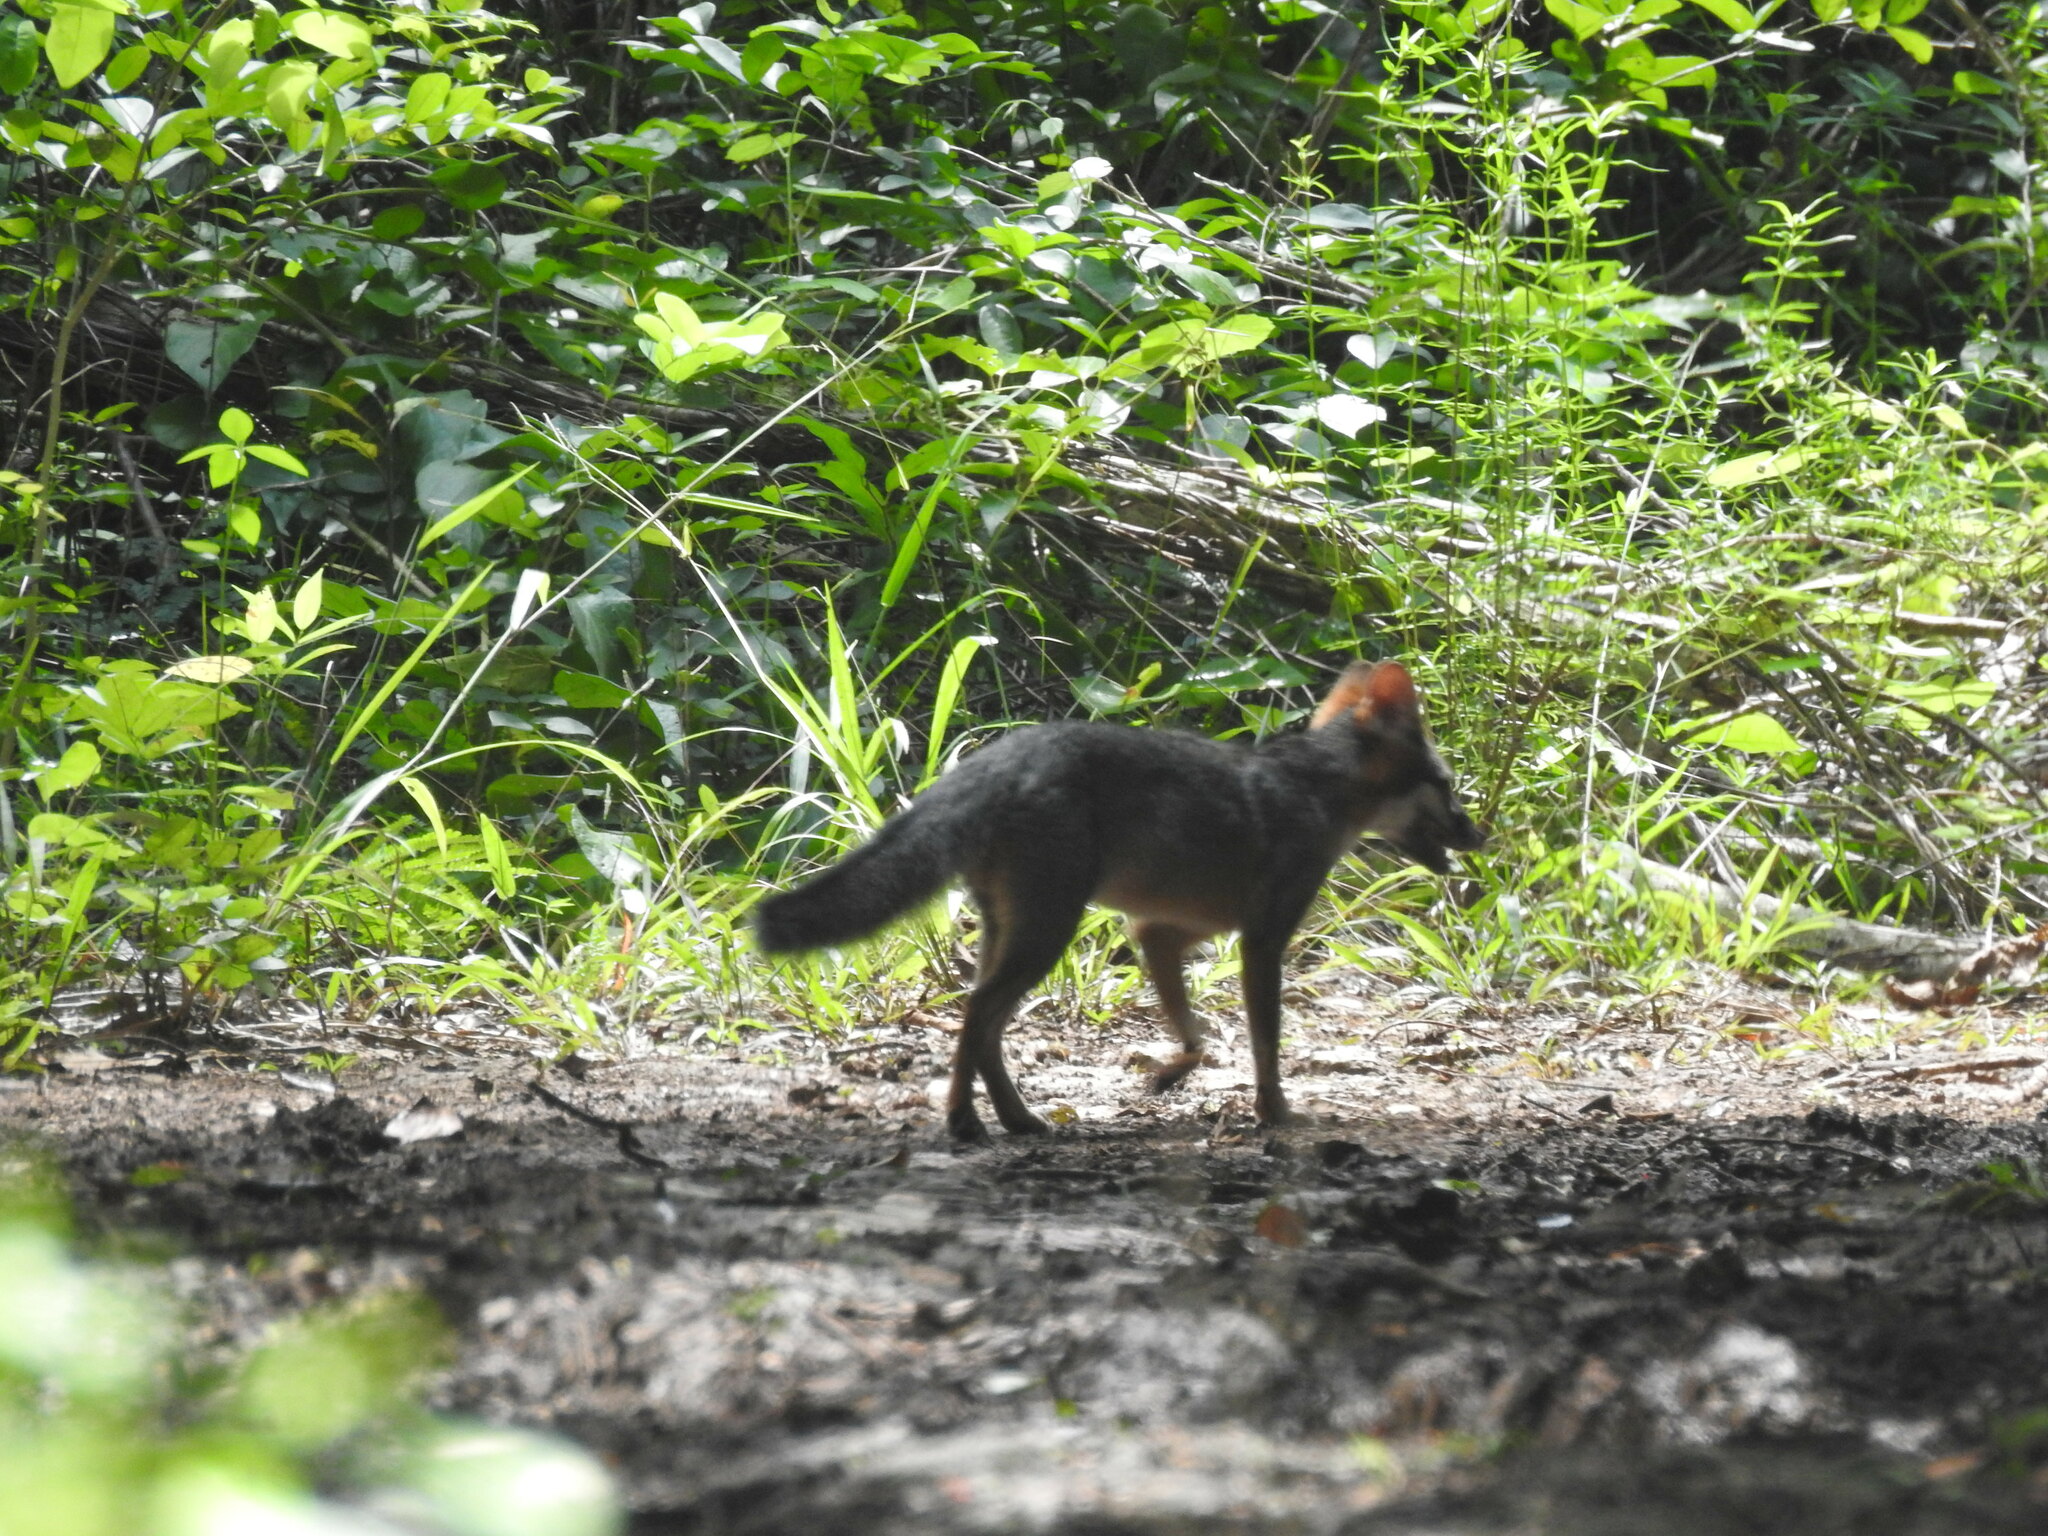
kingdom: Animalia
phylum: Chordata
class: Mammalia
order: Carnivora
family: Canidae
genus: Urocyon
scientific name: Urocyon cinereoargenteus
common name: Gray fox
